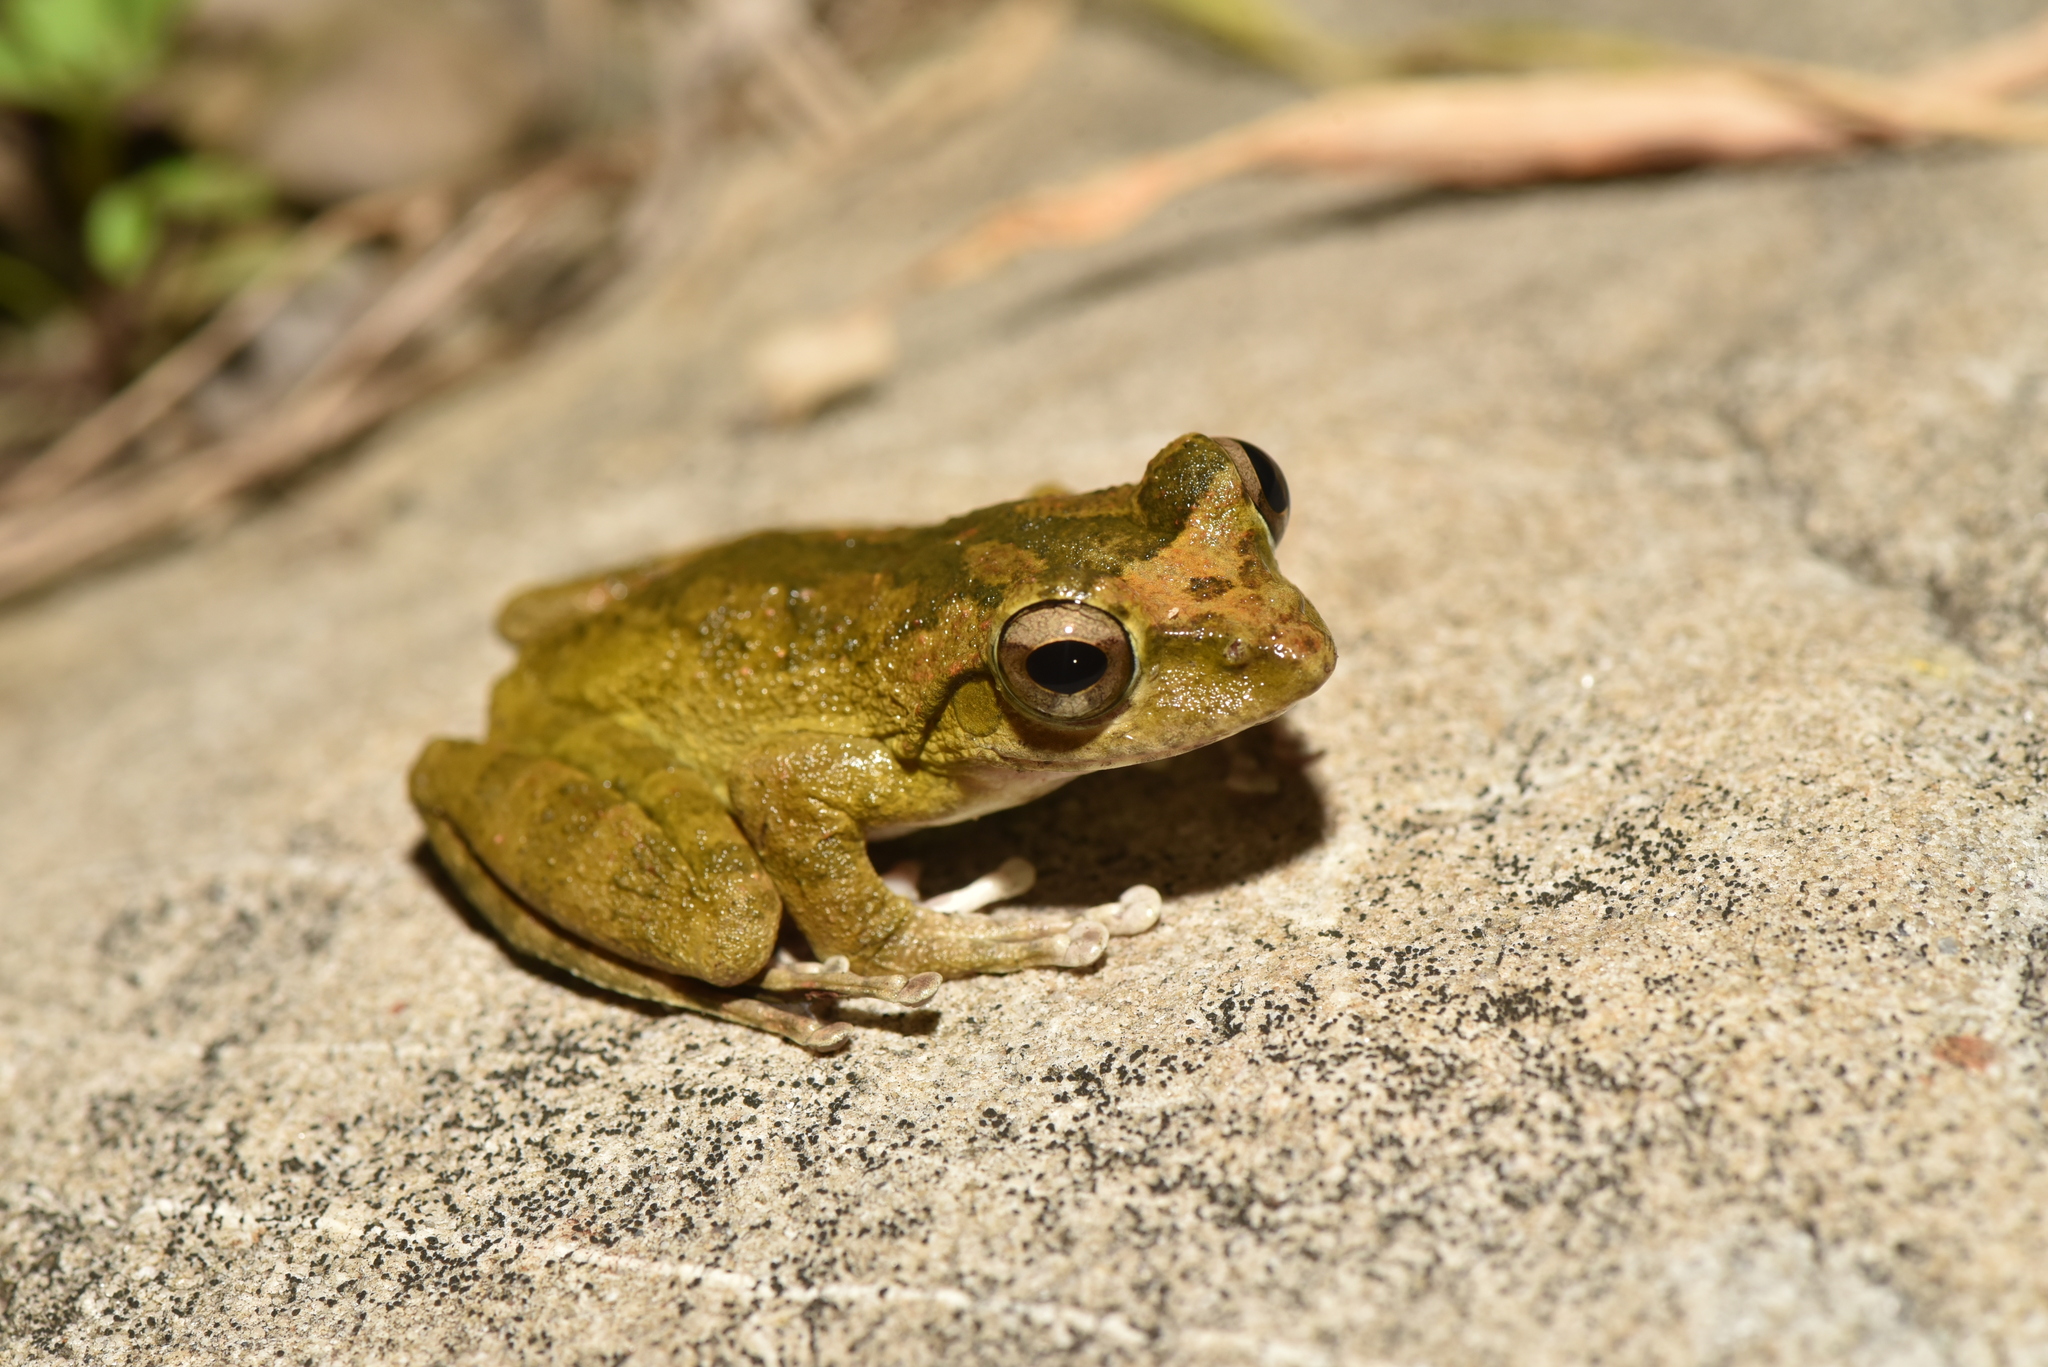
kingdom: Animalia
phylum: Chordata
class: Amphibia
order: Anura
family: Rhacophoridae
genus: Buergeria
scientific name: Buergeria robusta
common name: Brown treefrog
